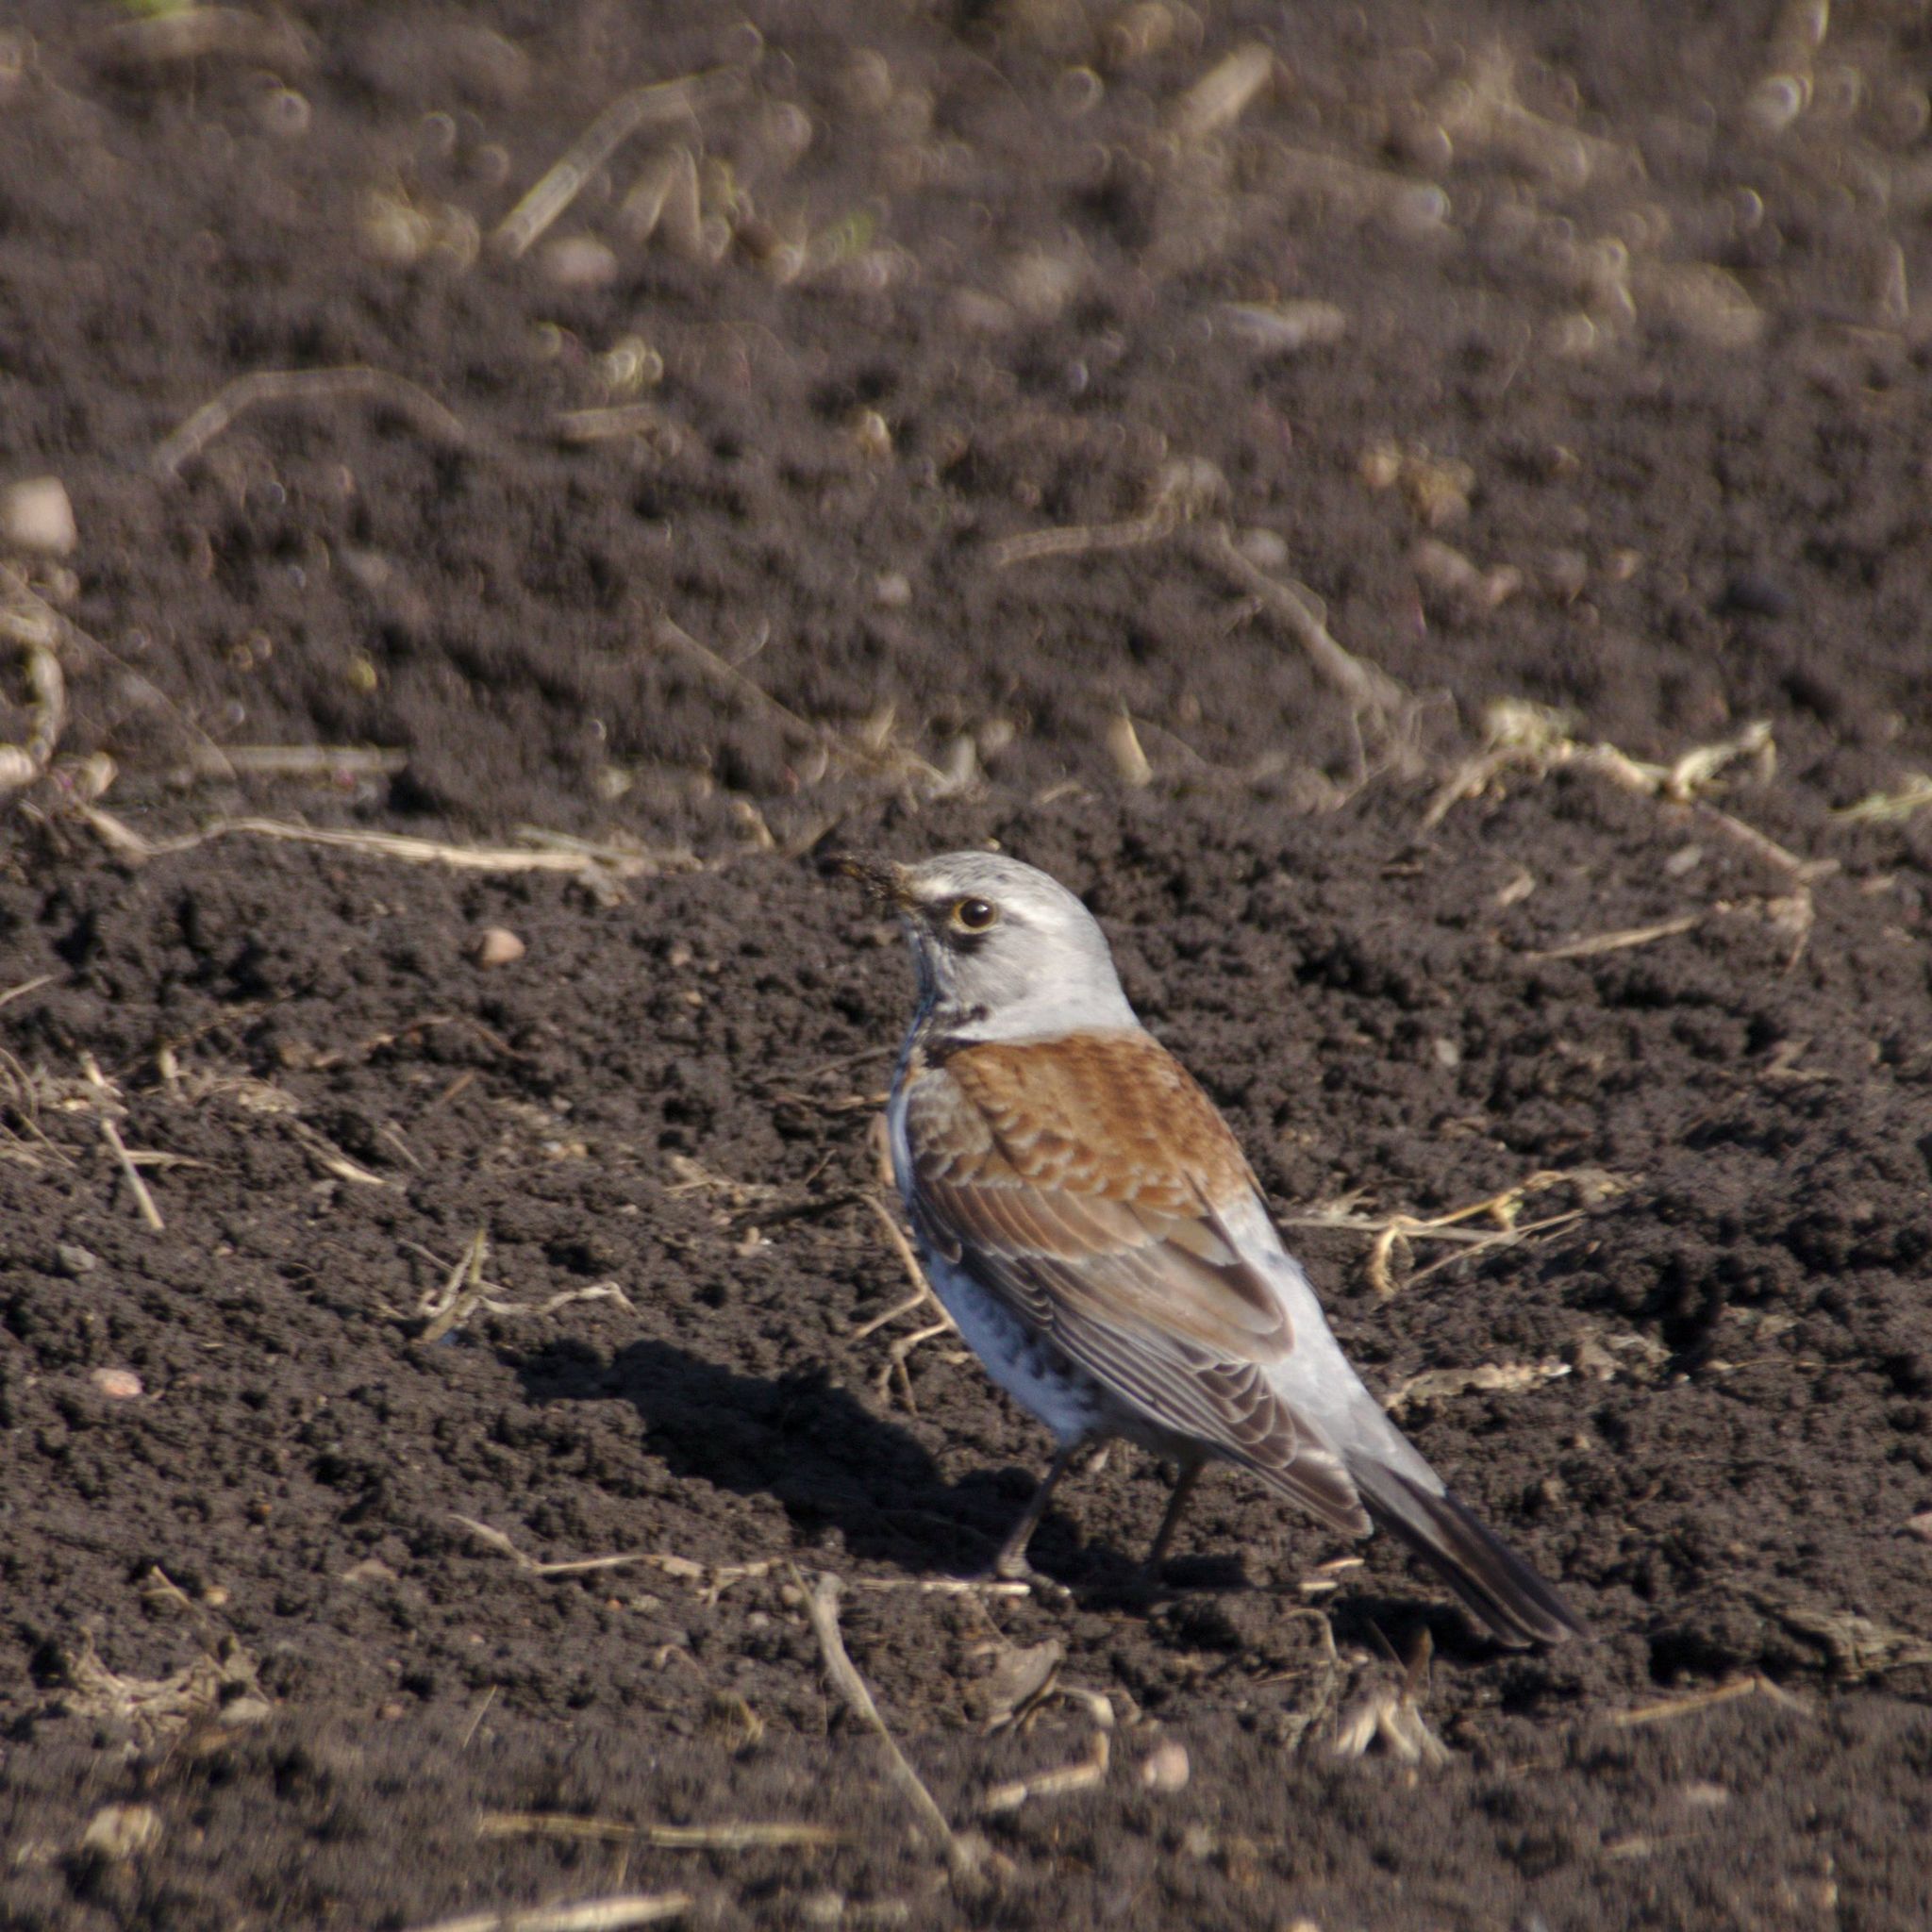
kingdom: Animalia
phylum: Chordata
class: Aves
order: Passeriformes
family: Turdidae
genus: Turdus
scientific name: Turdus pilaris
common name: Fieldfare
